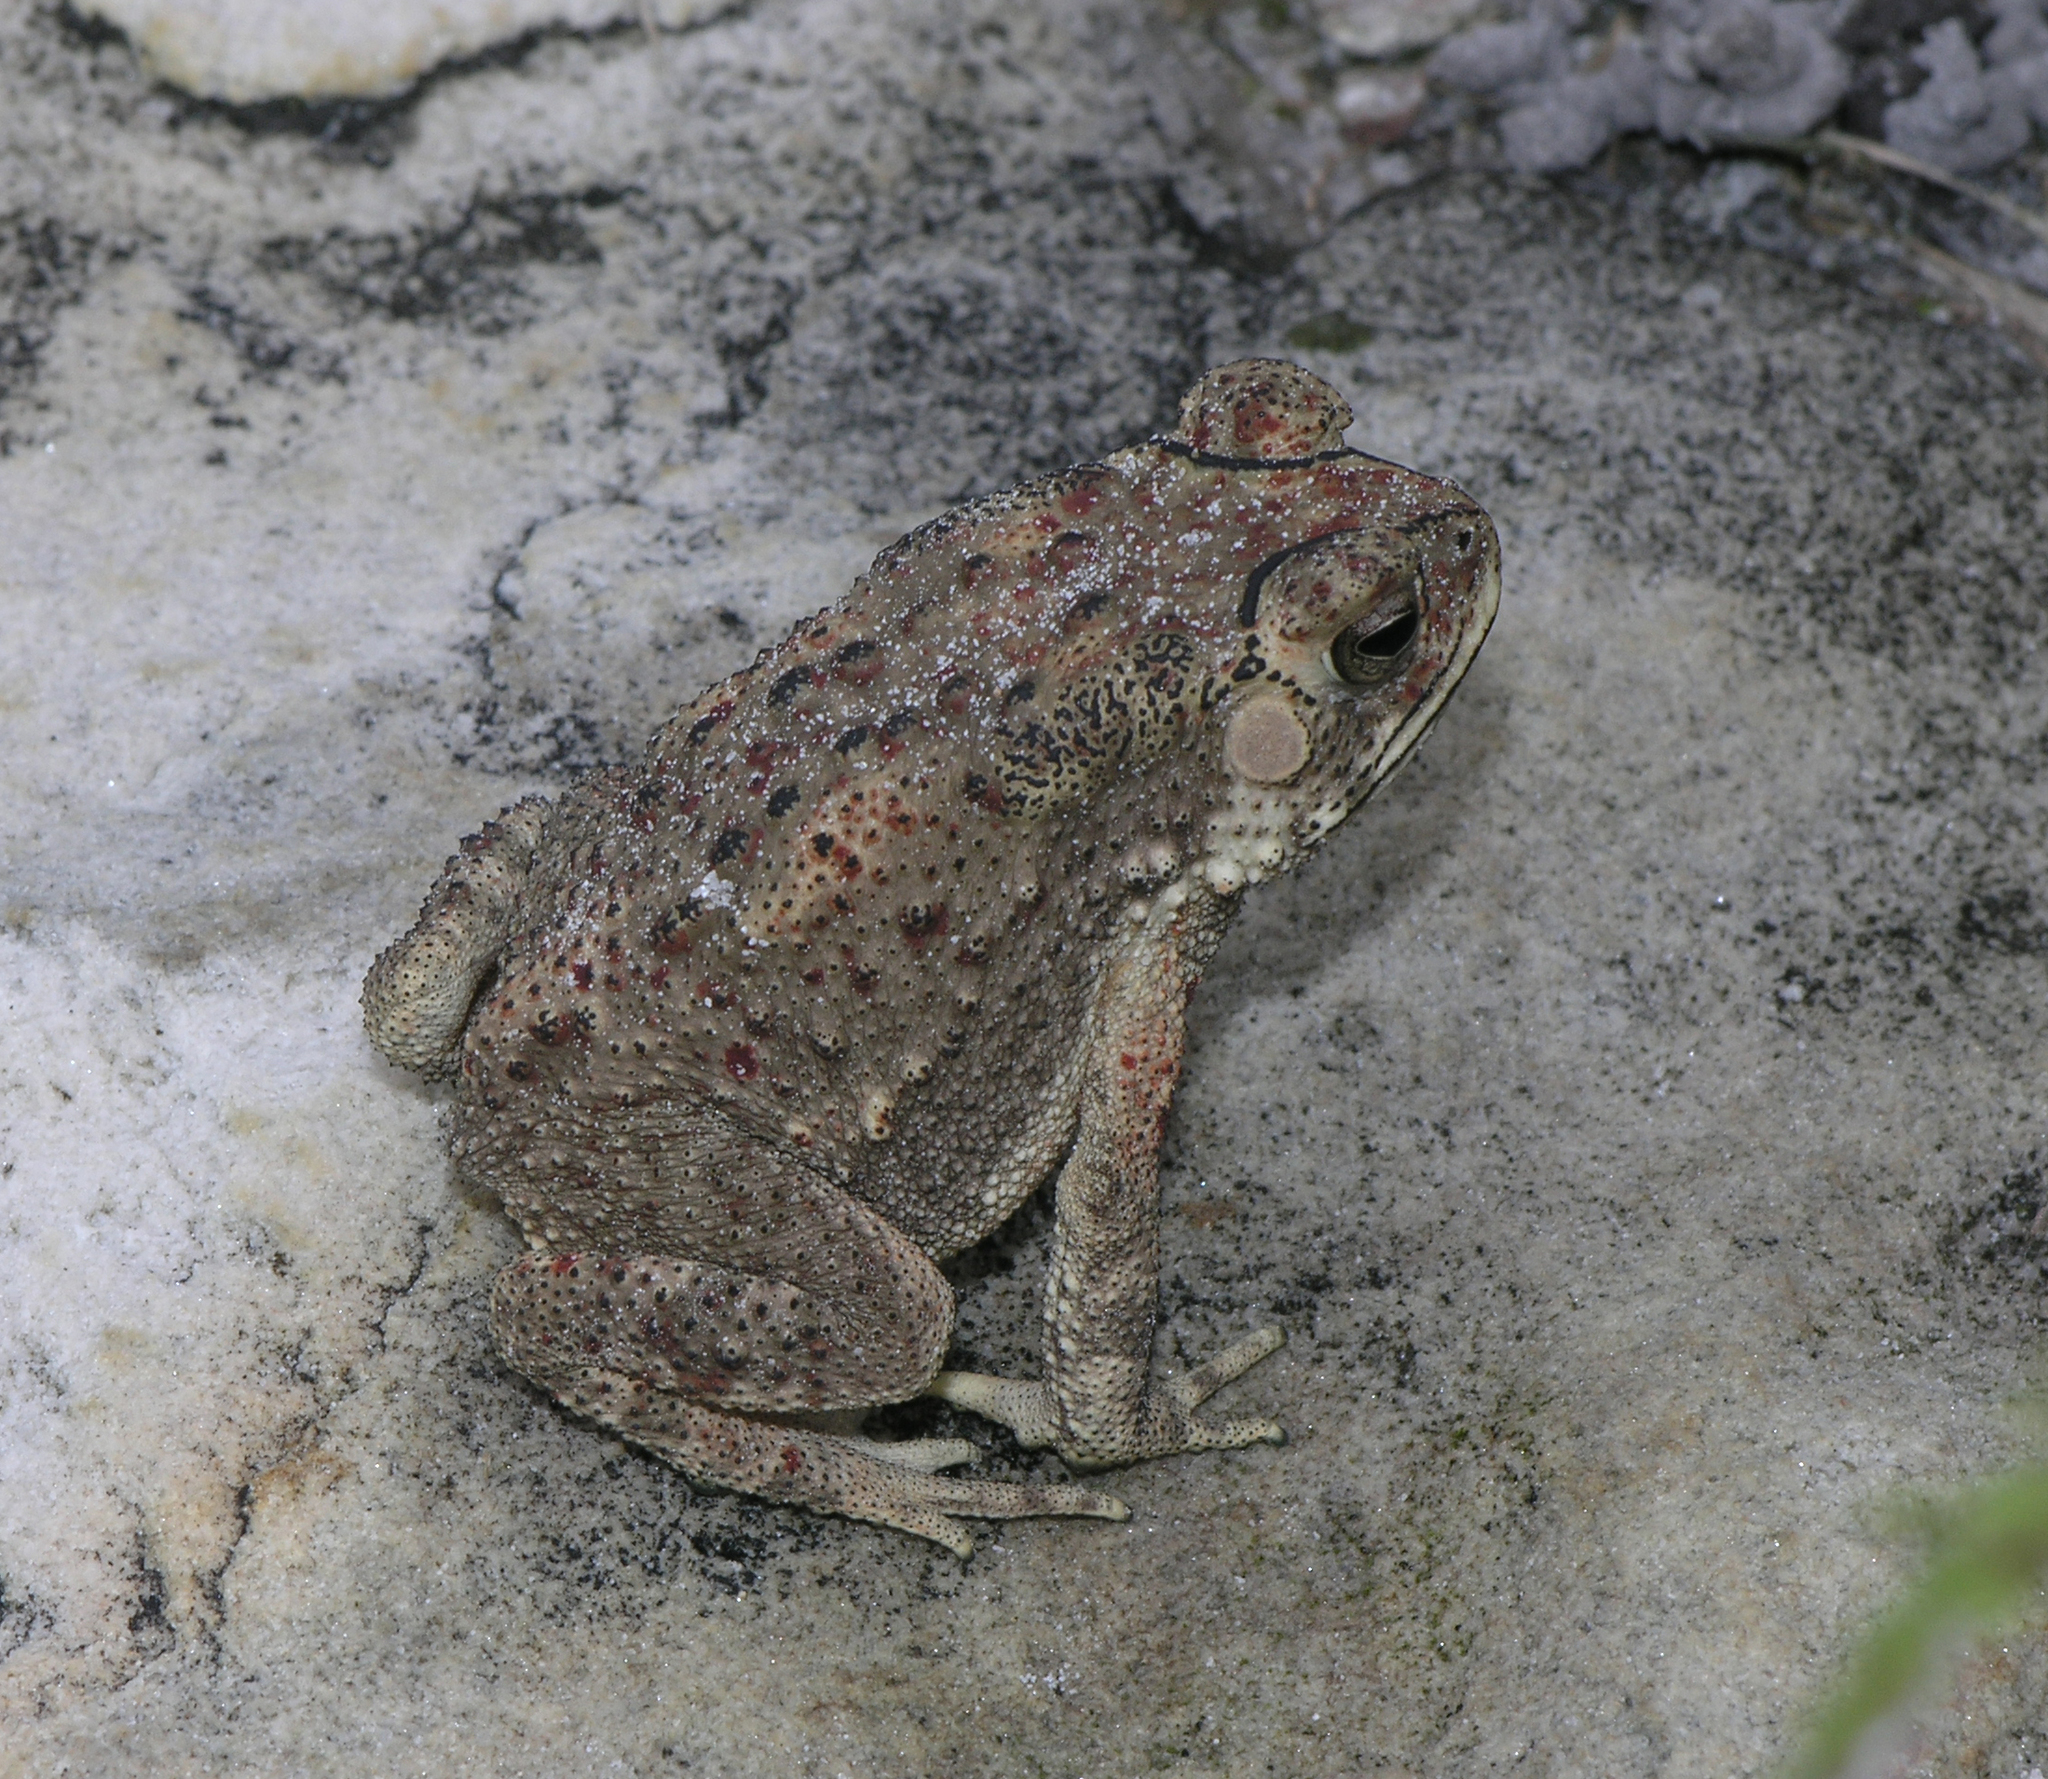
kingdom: Animalia
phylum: Chordata
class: Amphibia
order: Anura
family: Bufonidae
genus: Duttaphrynus
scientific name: Duttaphrynus melanostictus
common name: Common sunda toad
